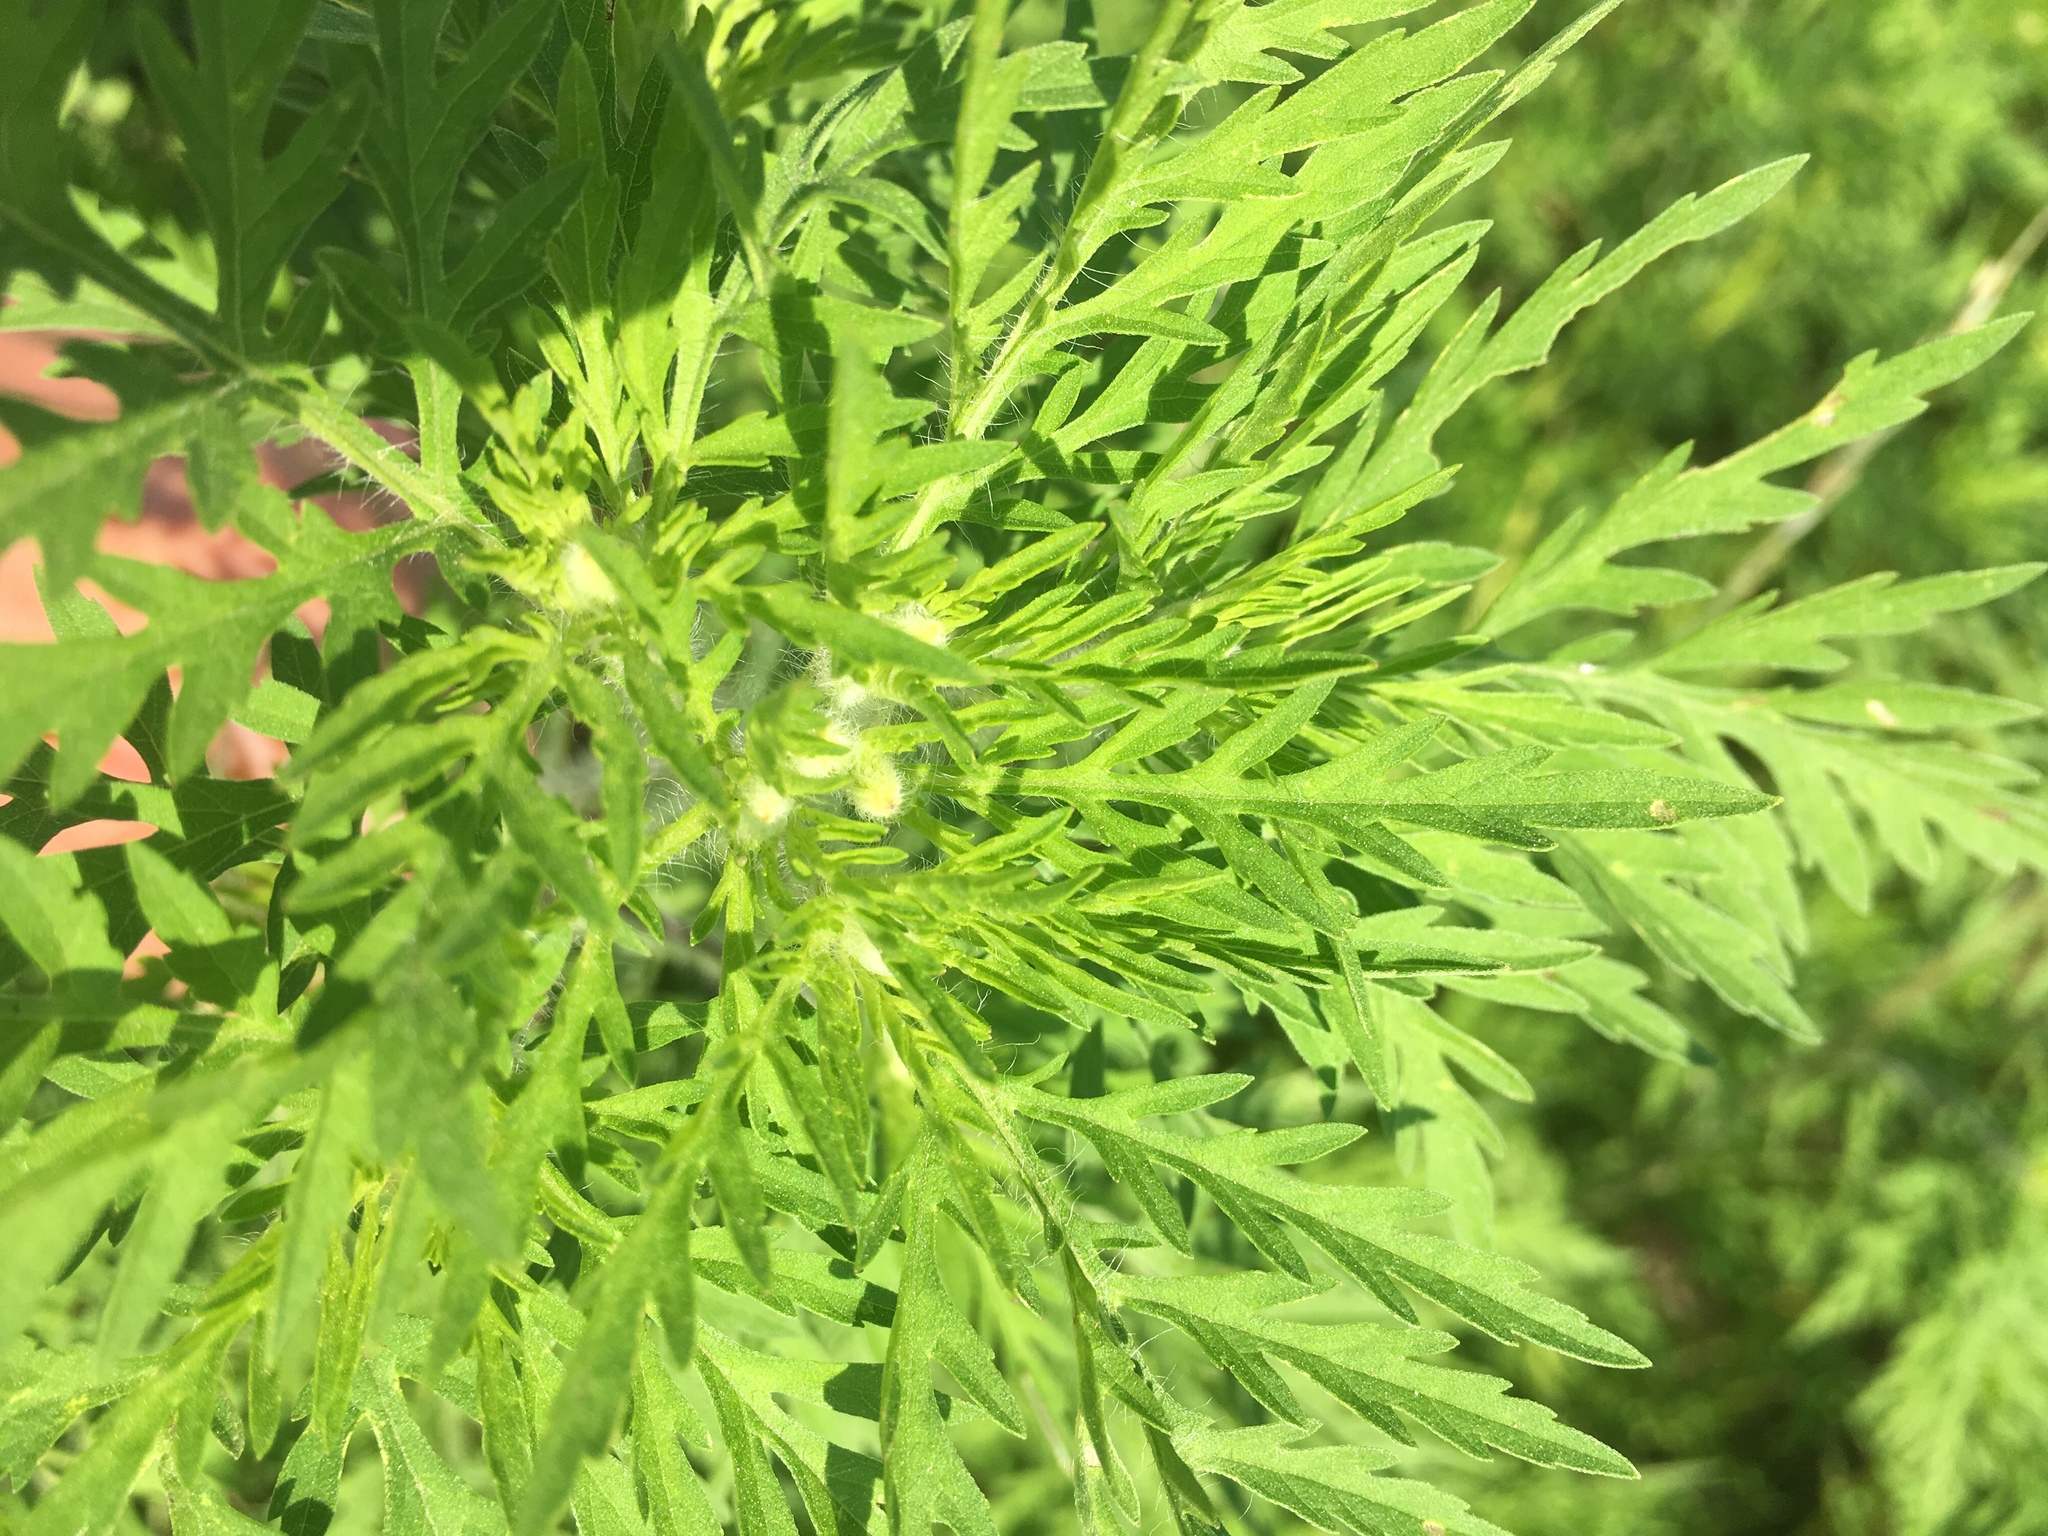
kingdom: Plantae
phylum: Tracheophyta
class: Magnoliopsida
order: Asterales
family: Asteraceae
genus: Ambrosia
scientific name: Ambrosia artemisiifolia
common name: Annual ragweed
